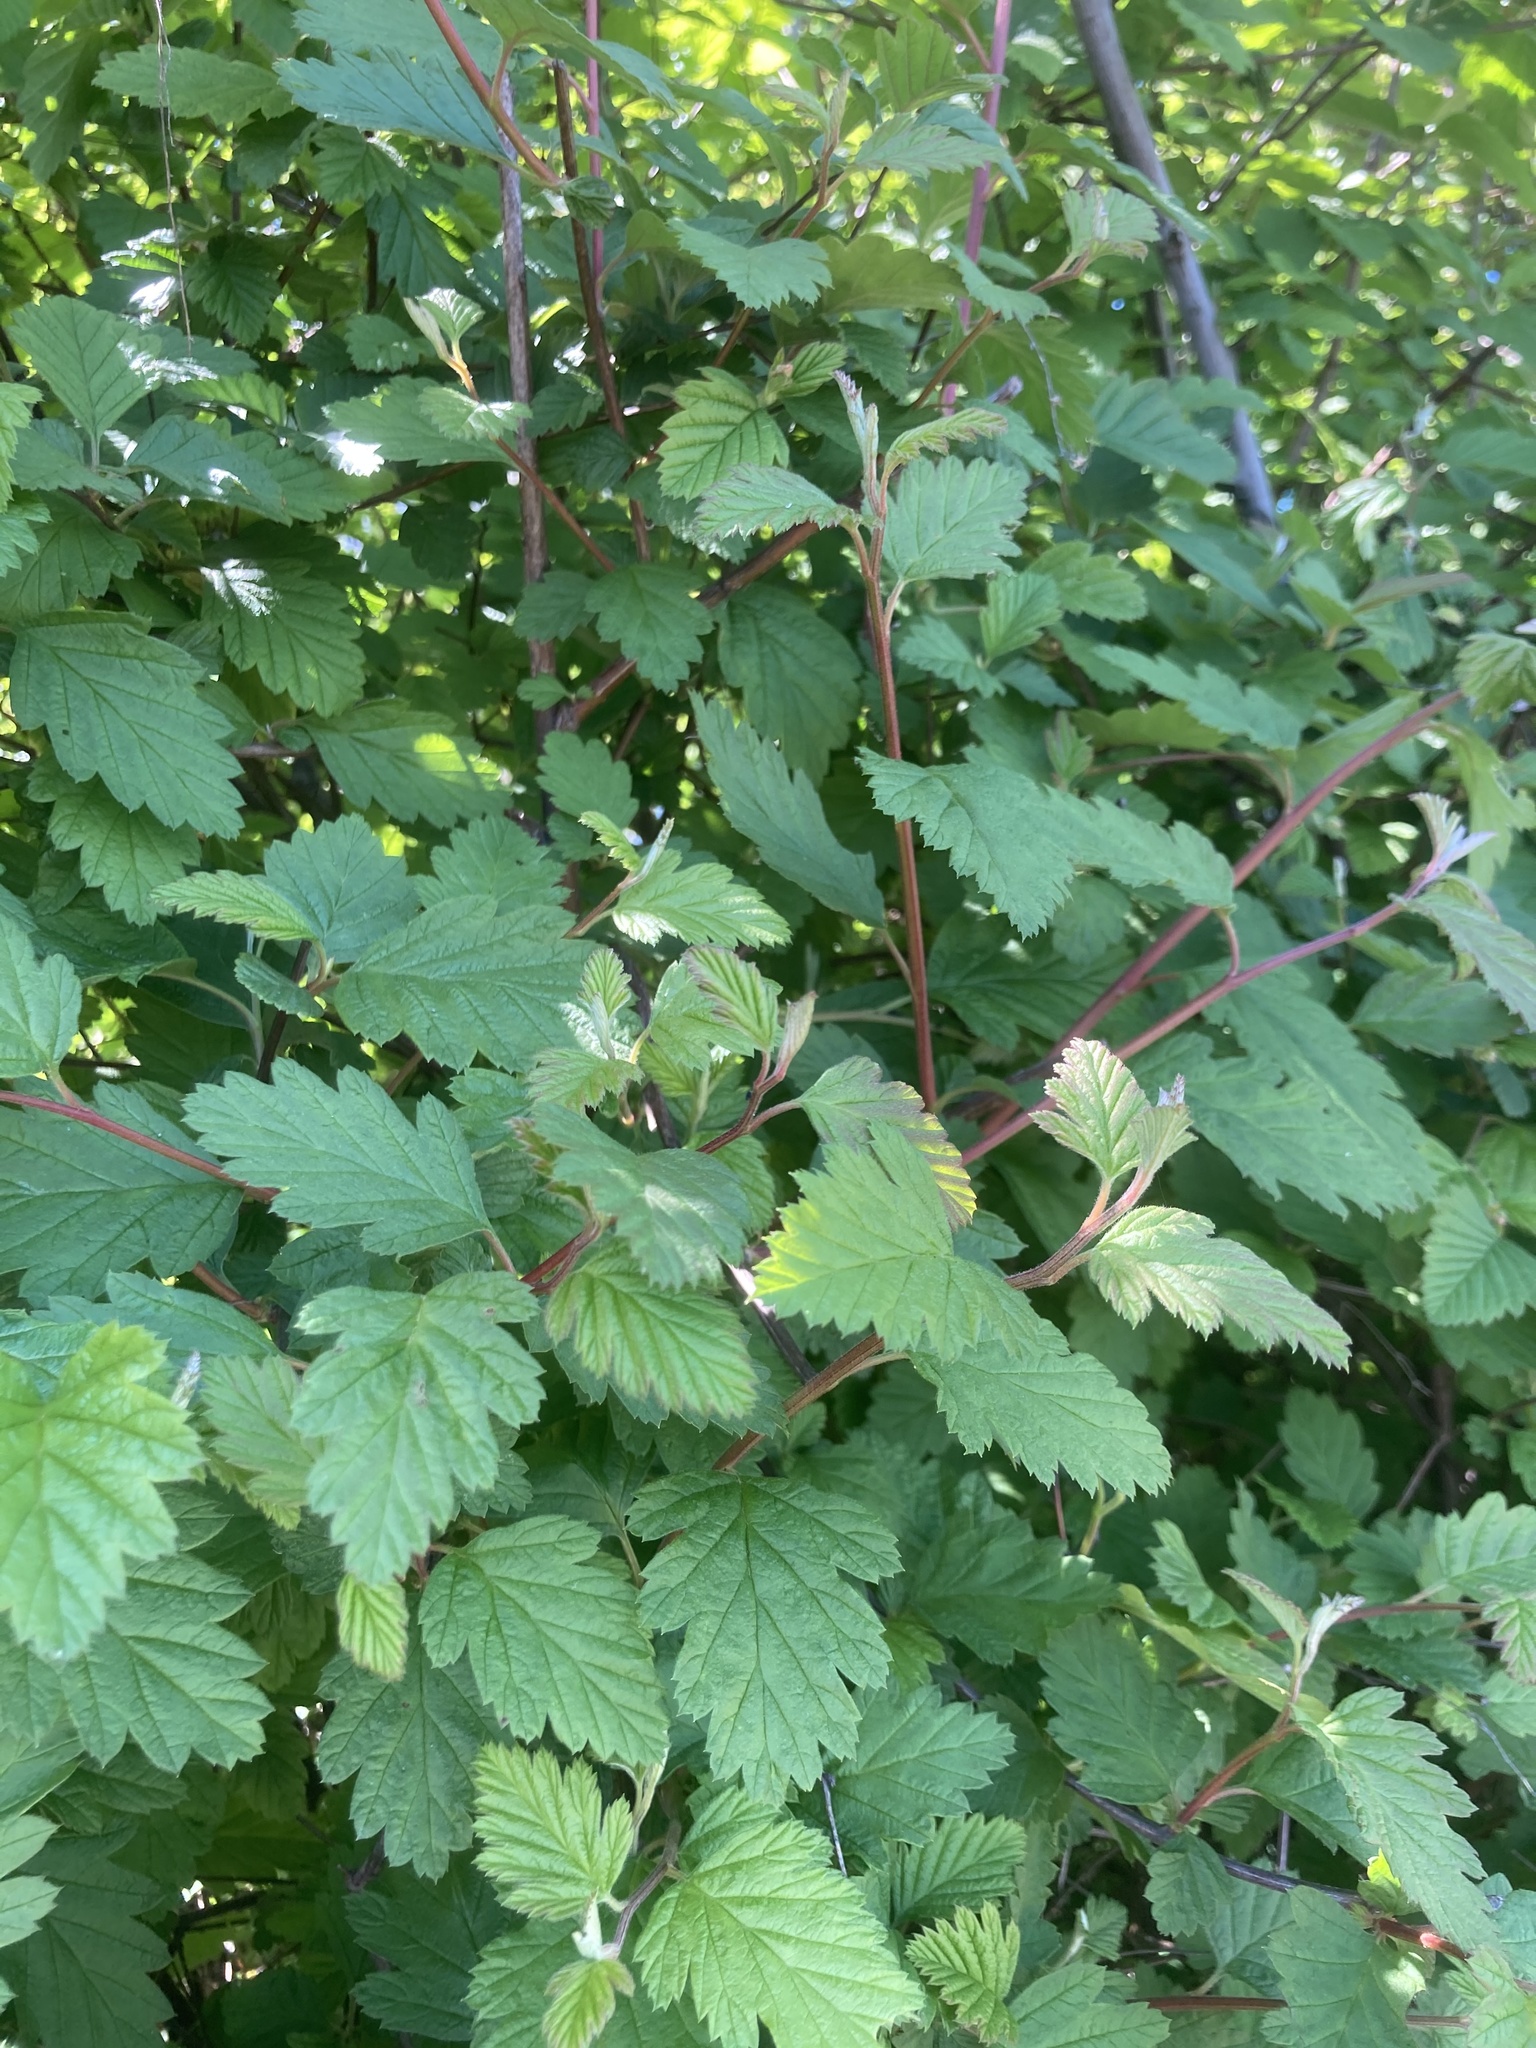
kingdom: Plantae
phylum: Tracheophyta
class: Magnoliopsida
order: Rosales
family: Rosaceae
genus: Holodiscus
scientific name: Holodiscus discolor
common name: Oceanspray
